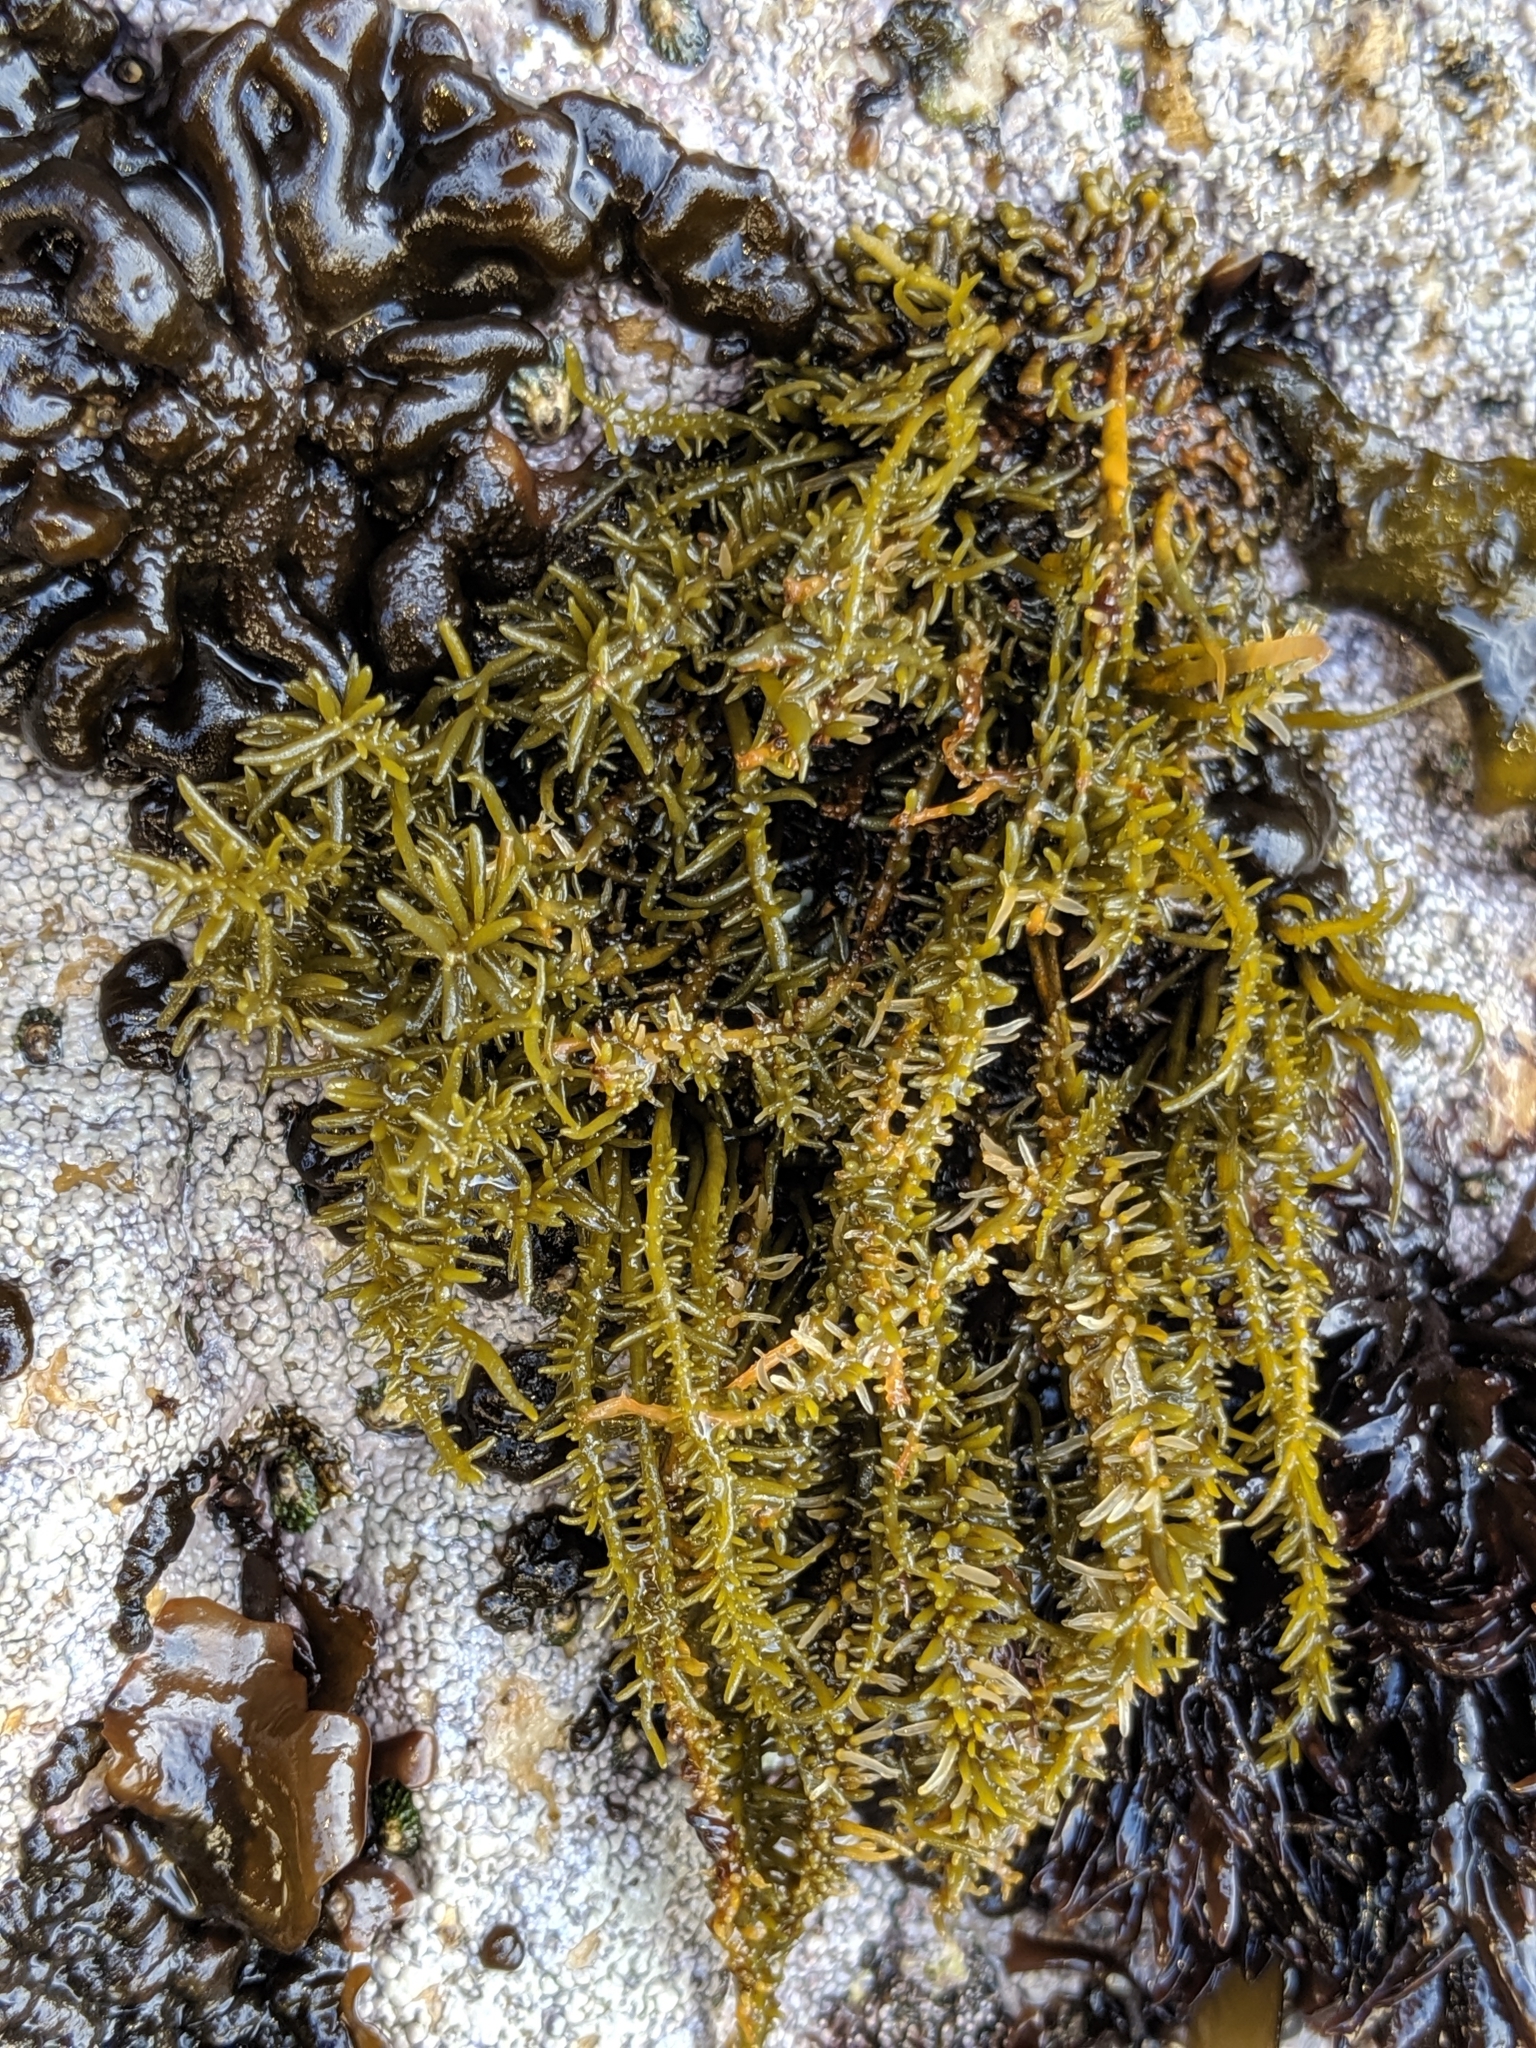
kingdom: Chromista
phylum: Ochrophyta
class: Phaeophyceae
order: Scytosiphonales
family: Scytosiphonaceae
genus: Analipus
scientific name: Analipus japonicus
